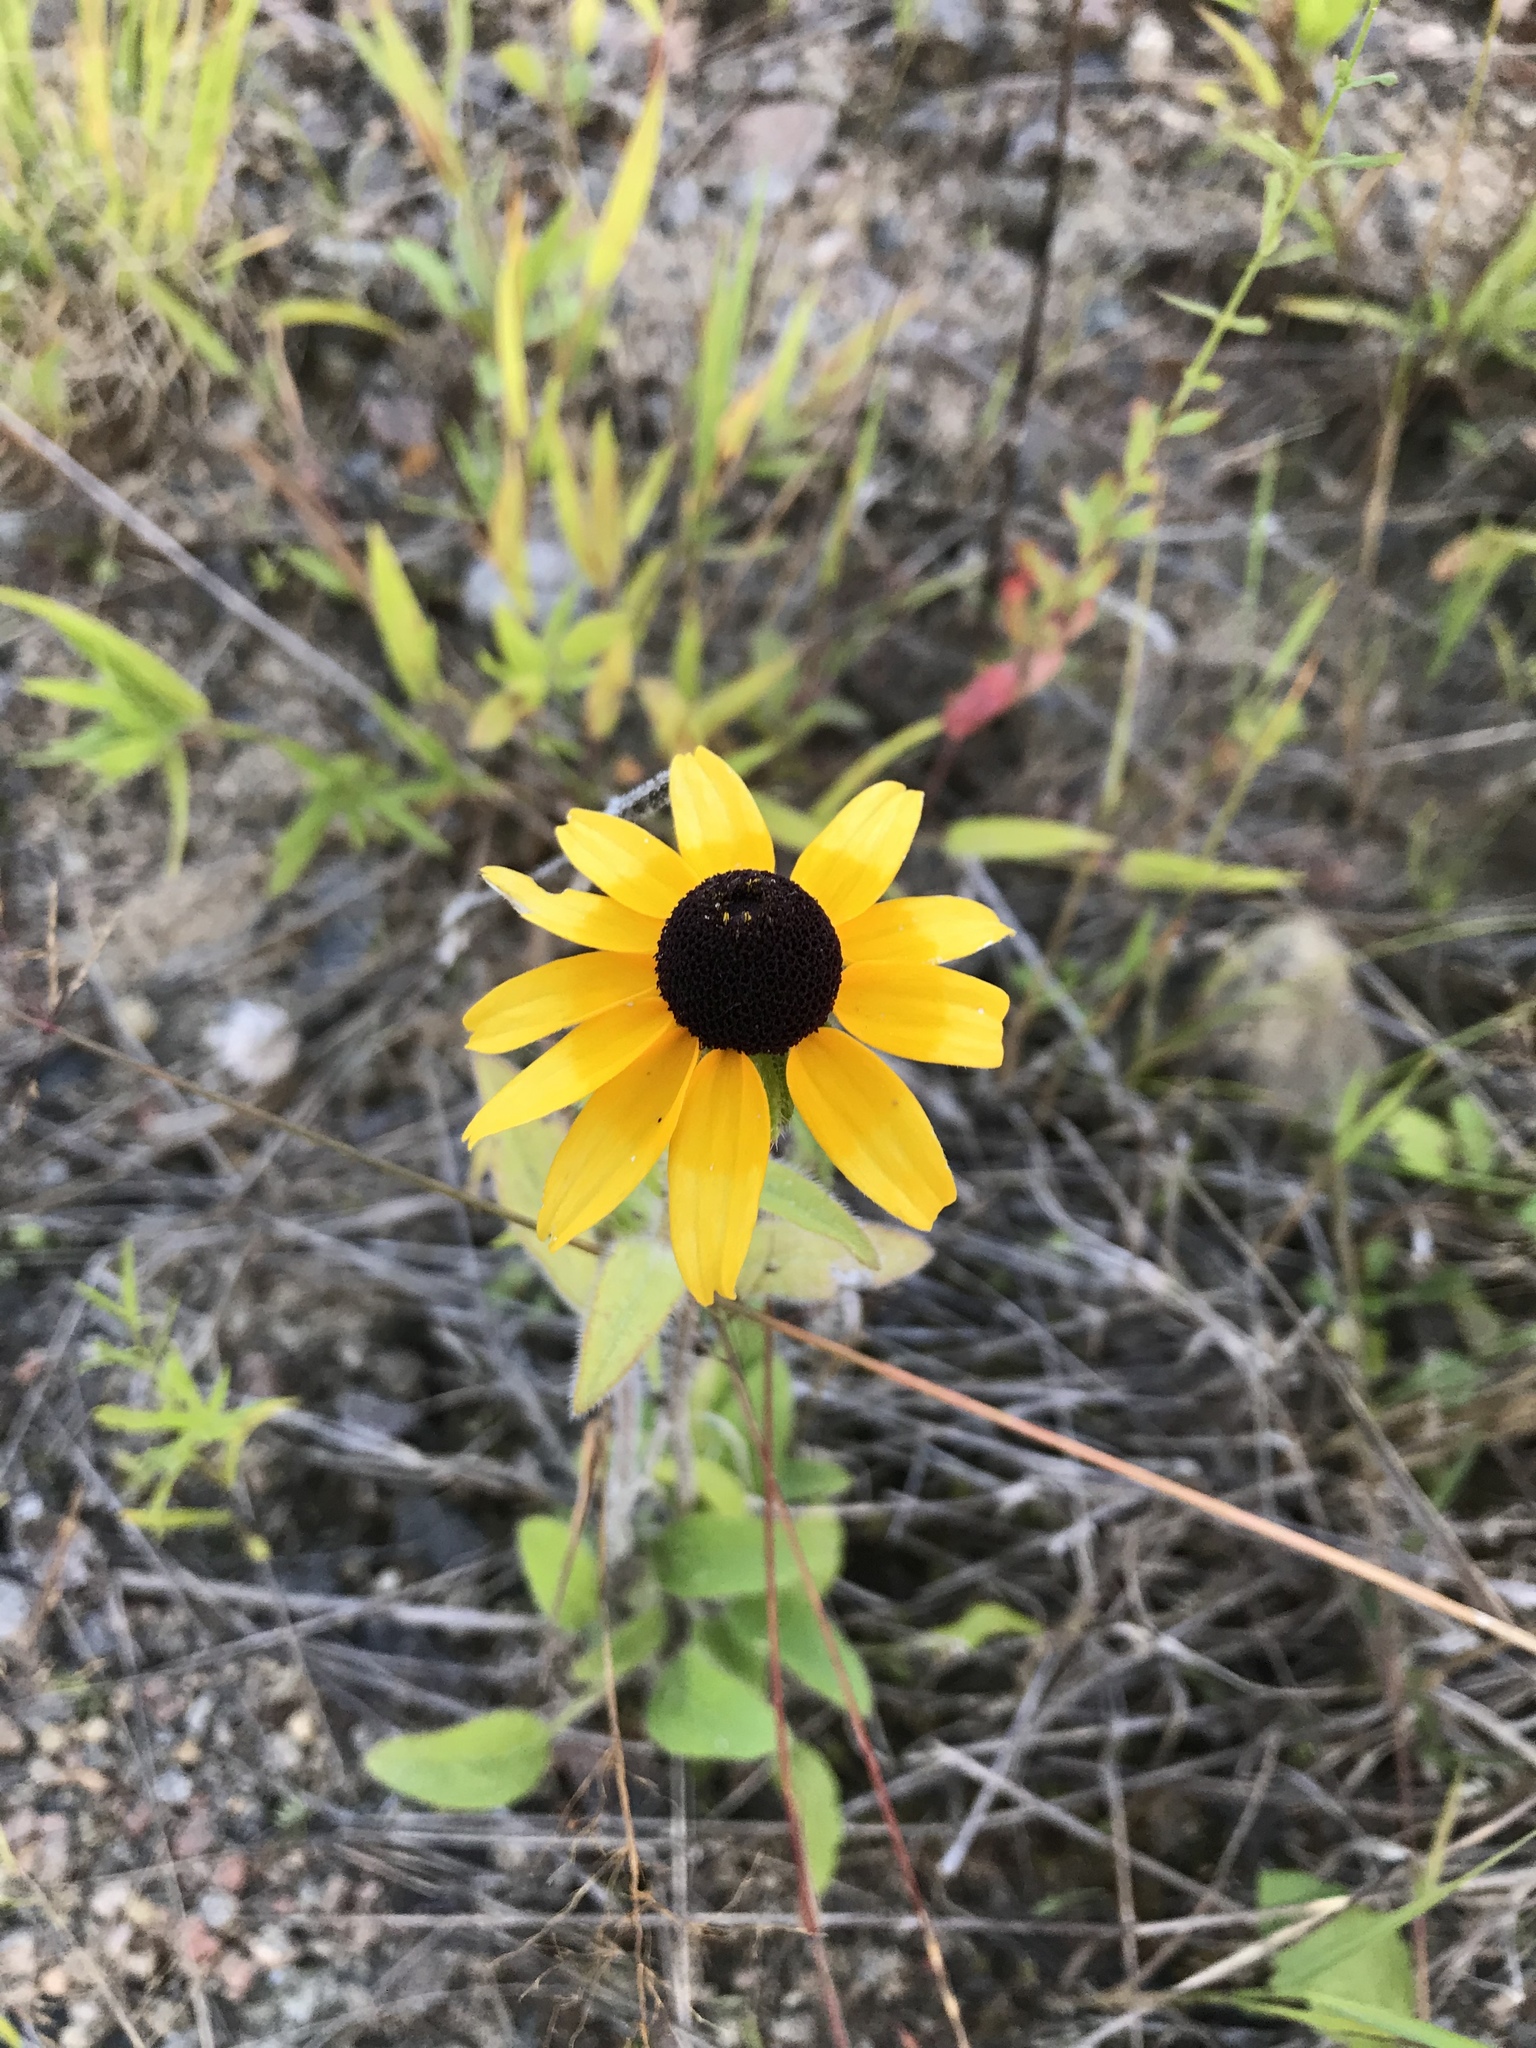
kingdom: Plantae
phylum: Tracheophyta
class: Magnoliopsida
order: Asterales
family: Asteraceae
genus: Rudbeckia
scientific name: Rudbeckia hirta
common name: Black-eyed-susan
